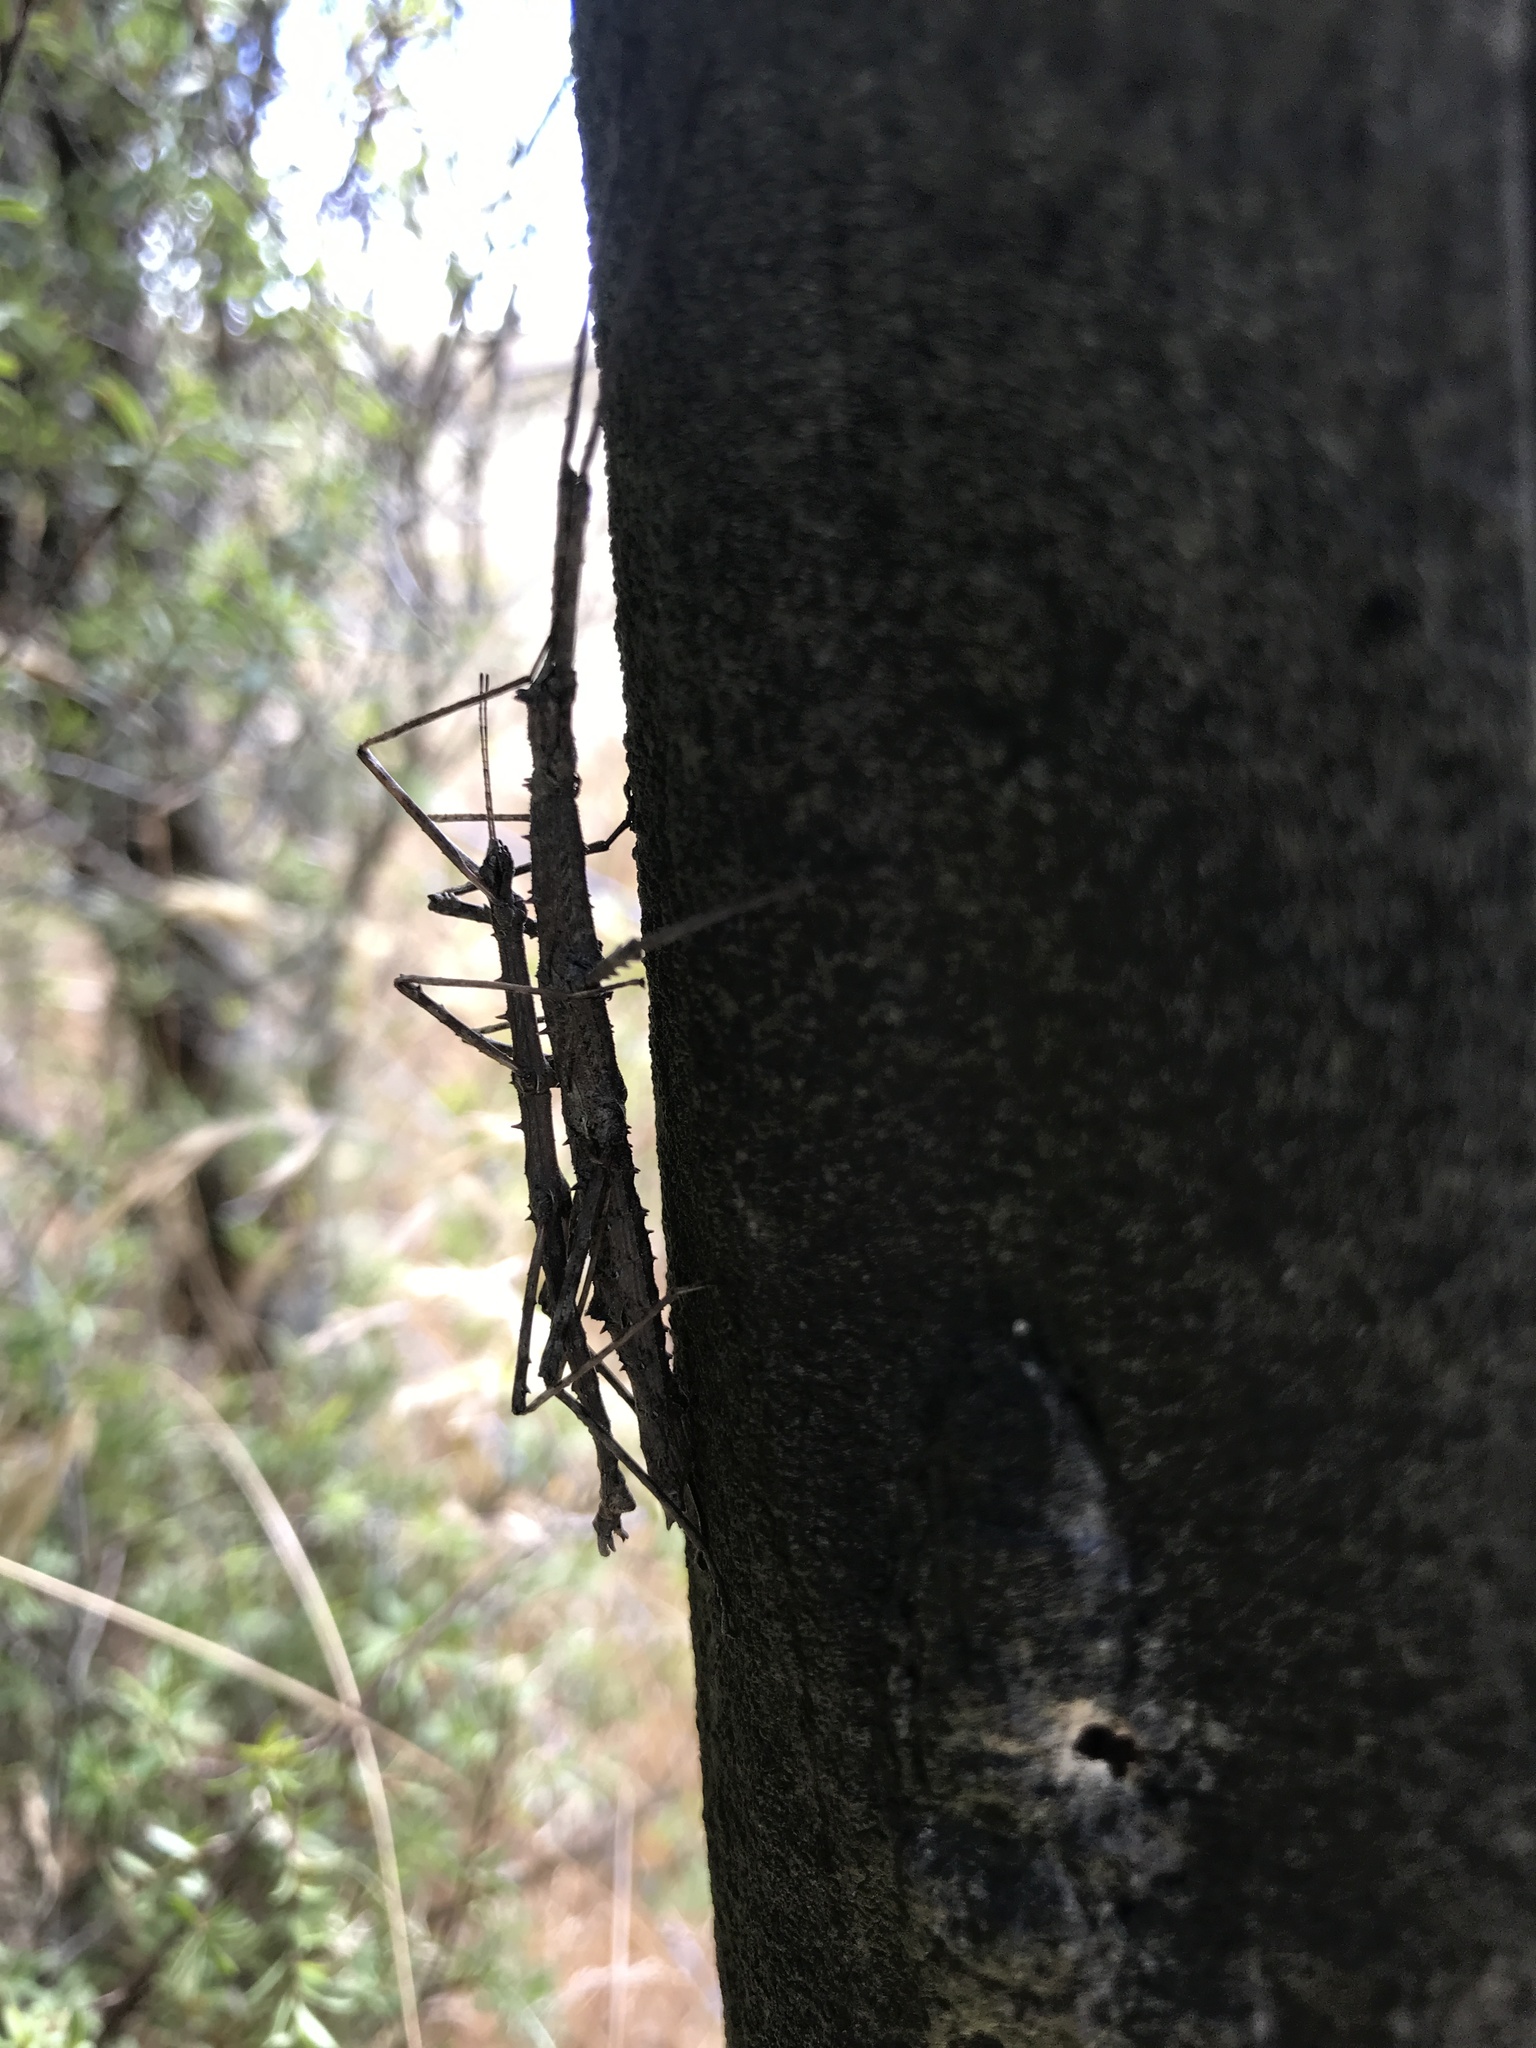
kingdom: Animalia
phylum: Arthropoda
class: Insecta
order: Phasmida
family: Phasmatidae
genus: Micrarchus
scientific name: Micrarchus hystriculeus
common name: The lesser spiny stick insect
